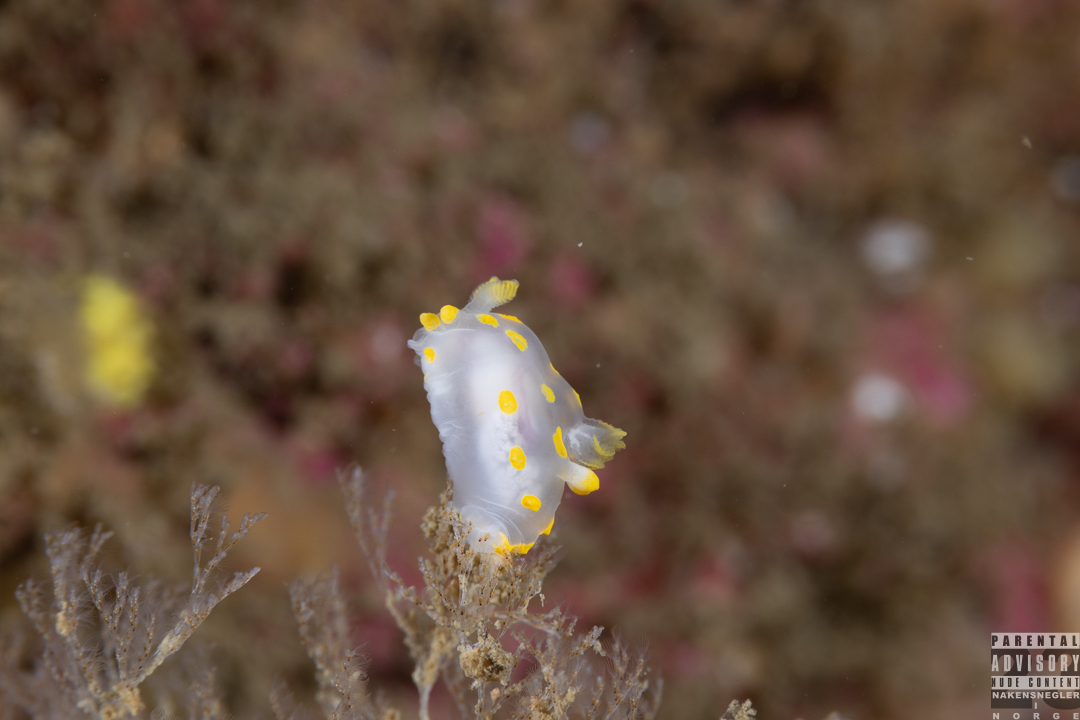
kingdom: Animalia
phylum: Mollusca
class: Gastropoda
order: Nudibranchia
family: Polyceridae
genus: Polycera
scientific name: Polycera quadrilineata
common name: Four-striped polycera
